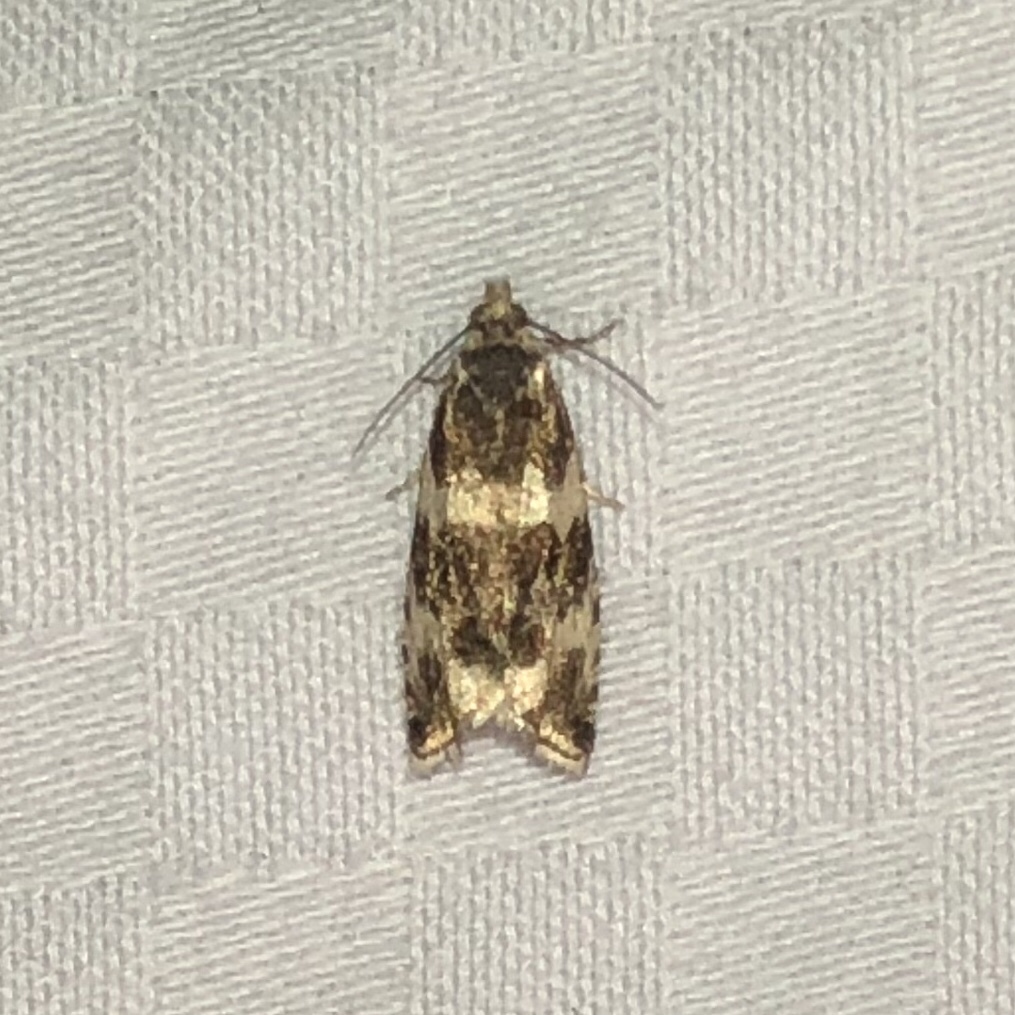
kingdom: Animalia
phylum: Arthropoda
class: Insecta
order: Lepidoptera
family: Tortricidae
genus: Olethreutes
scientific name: Olethreutes fasciatana
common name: Banded olethreutes moth
